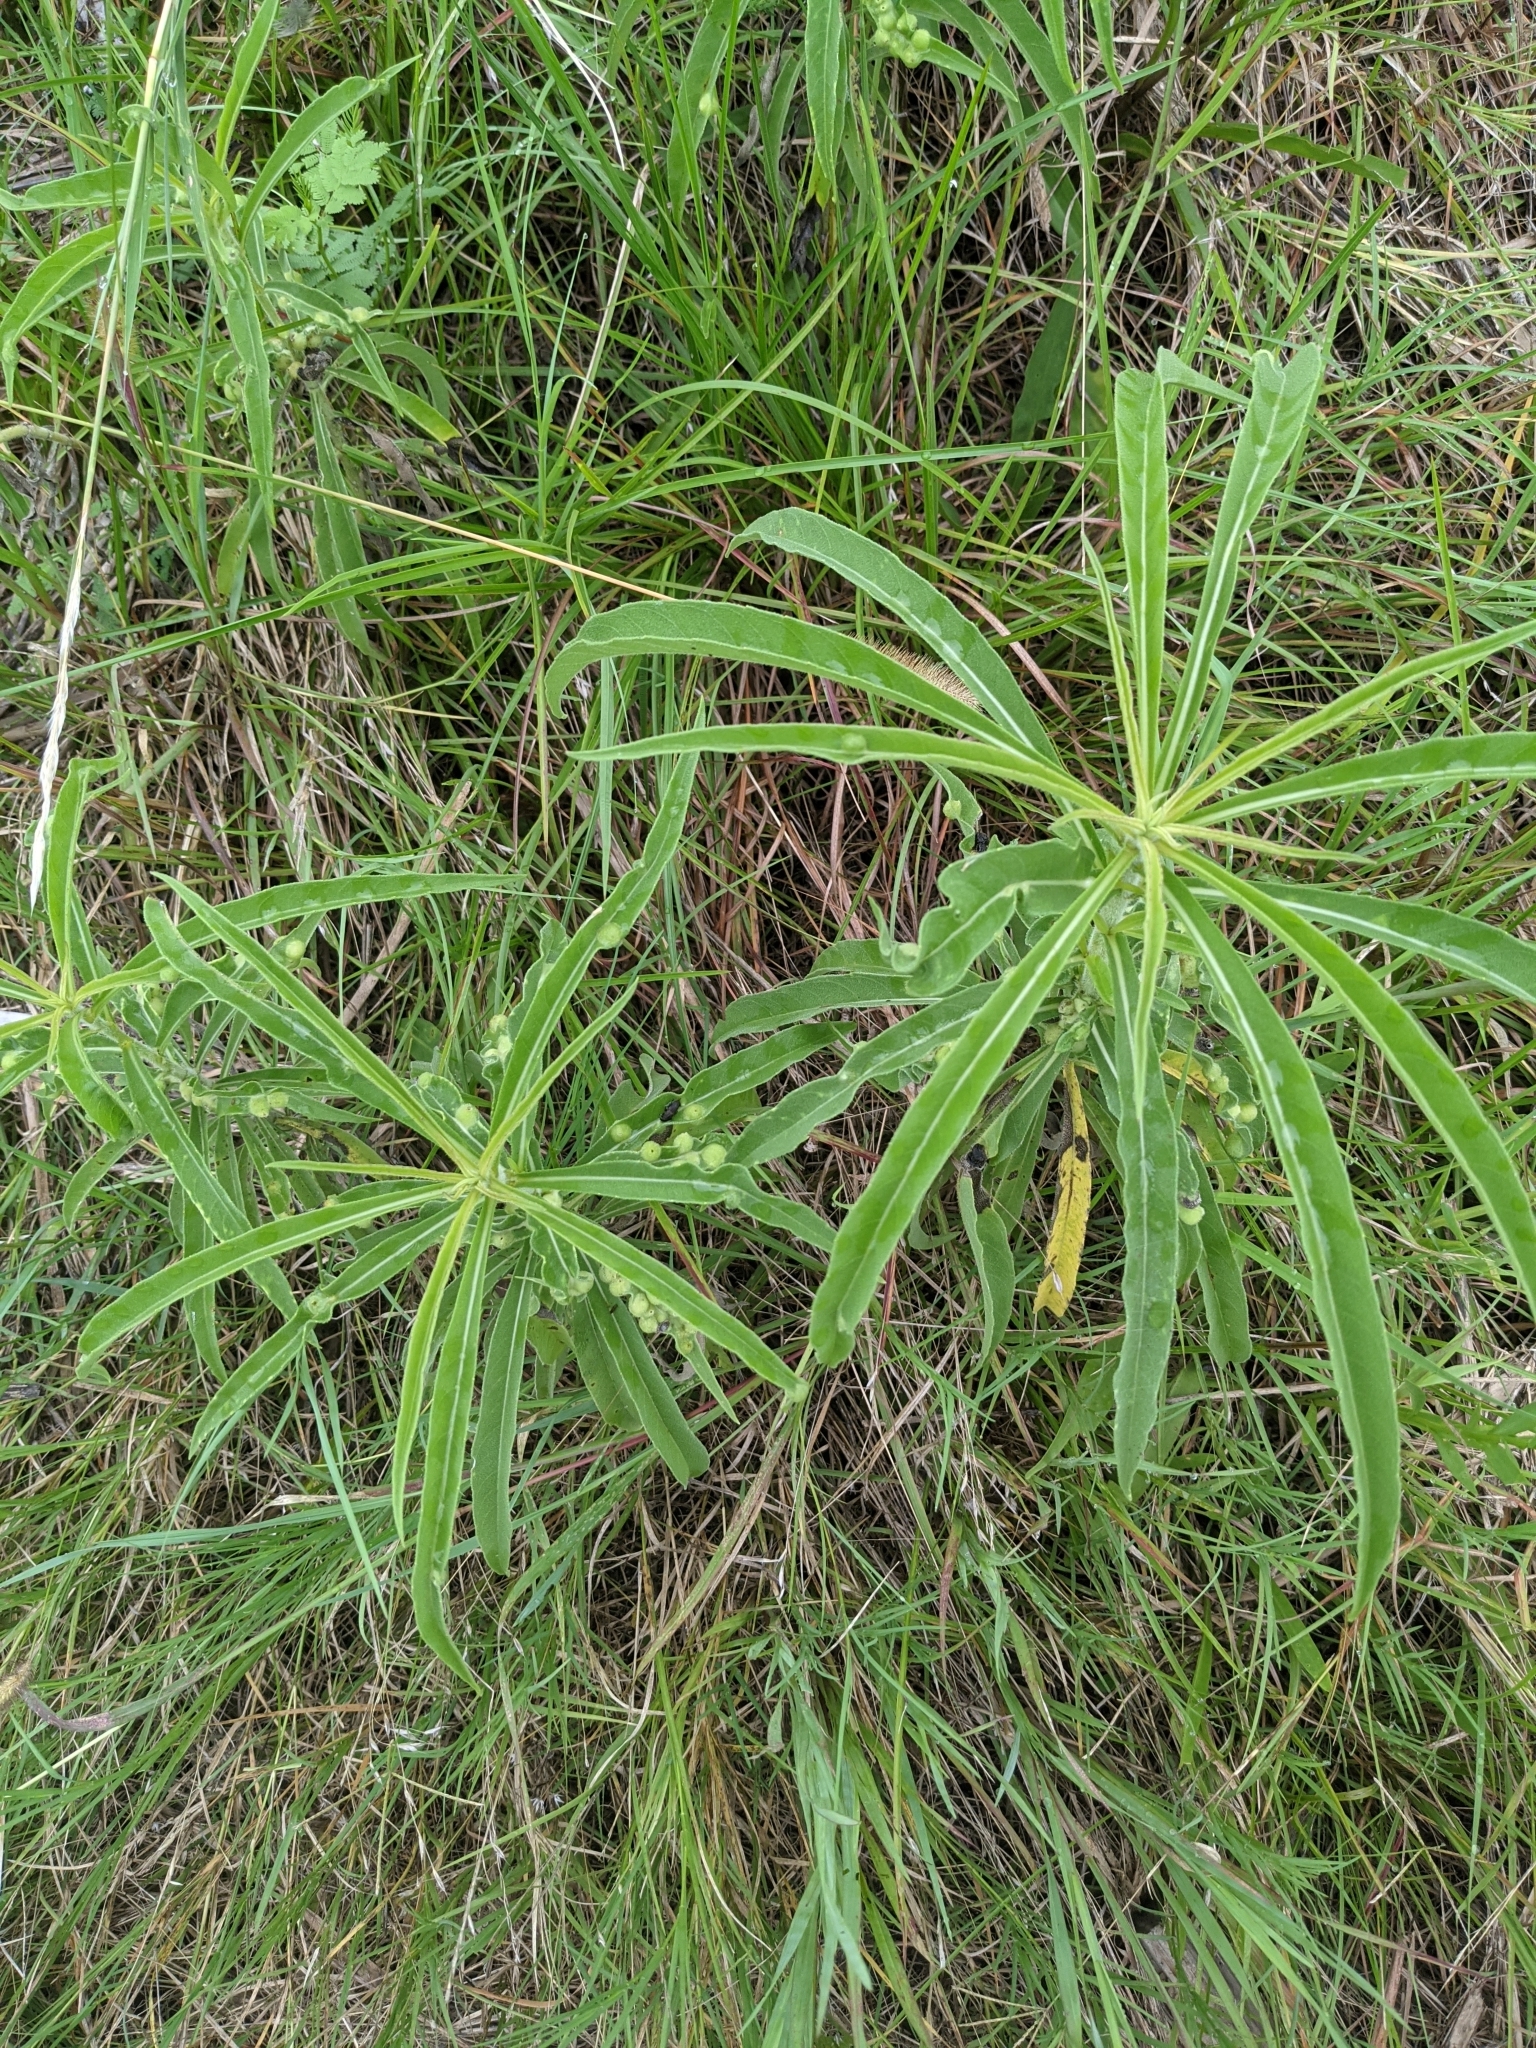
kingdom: Plantae
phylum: Tracheophyta
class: Magnoliopsida
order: Asterales
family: Asteraceae
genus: Helianthus
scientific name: Helianthus maximiliani
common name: Maximilian's sunflower
